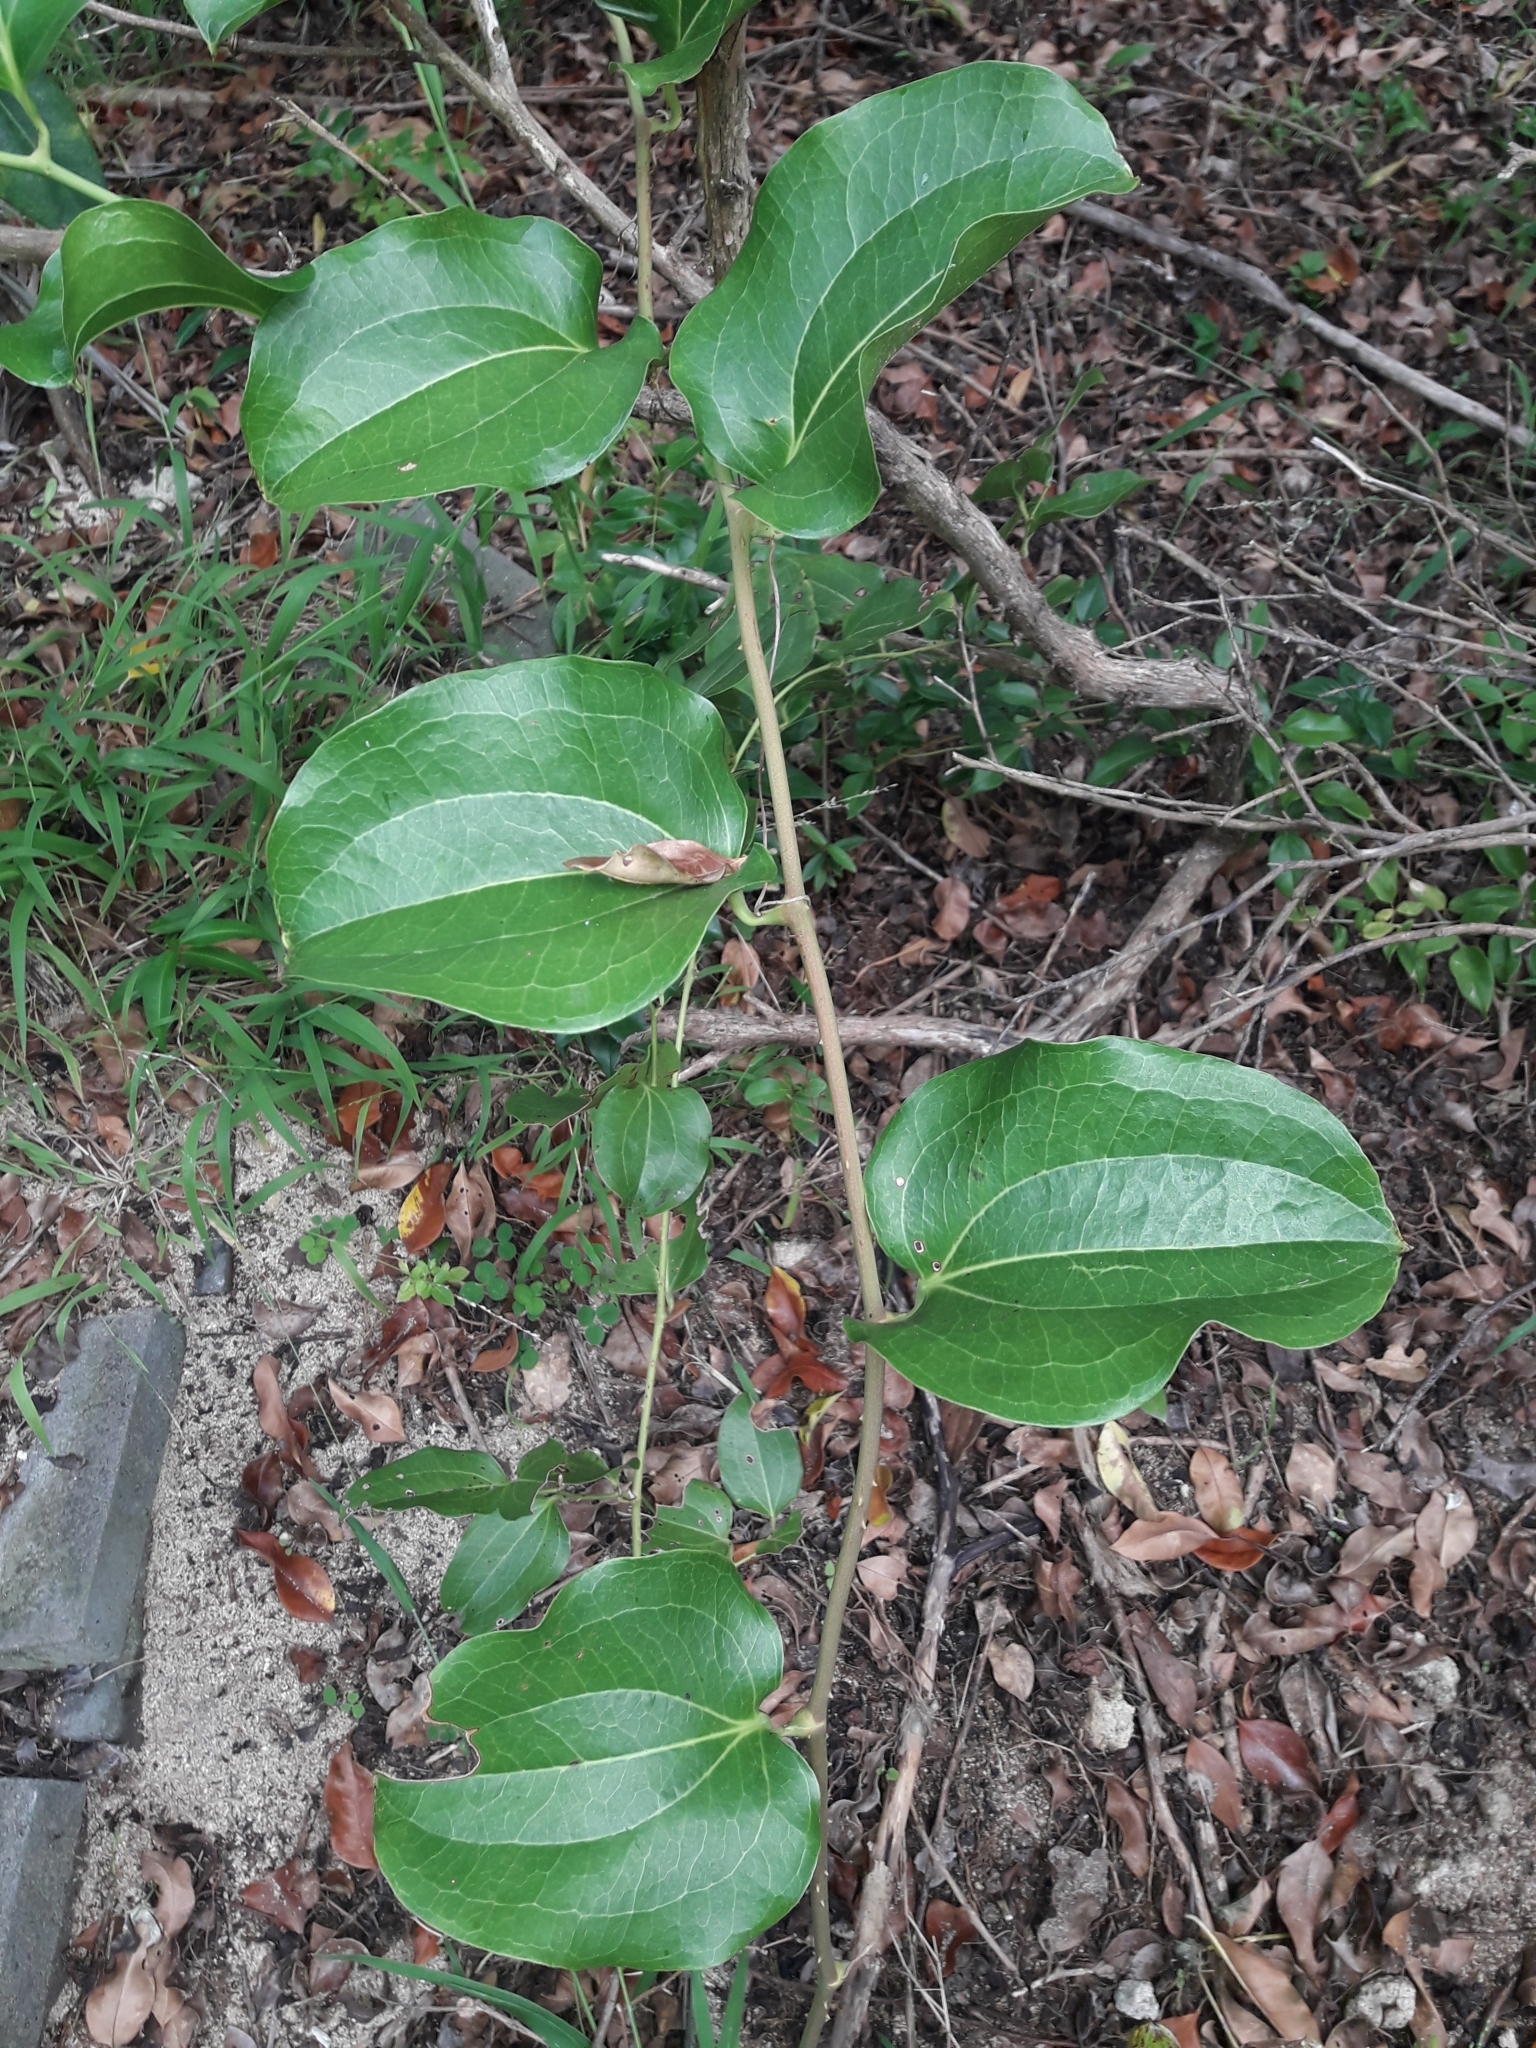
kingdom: Plantae
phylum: Tracheophyta
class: Liliopsida
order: Liliales
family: Smilacaceae
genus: Smilax
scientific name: Smilax australis
